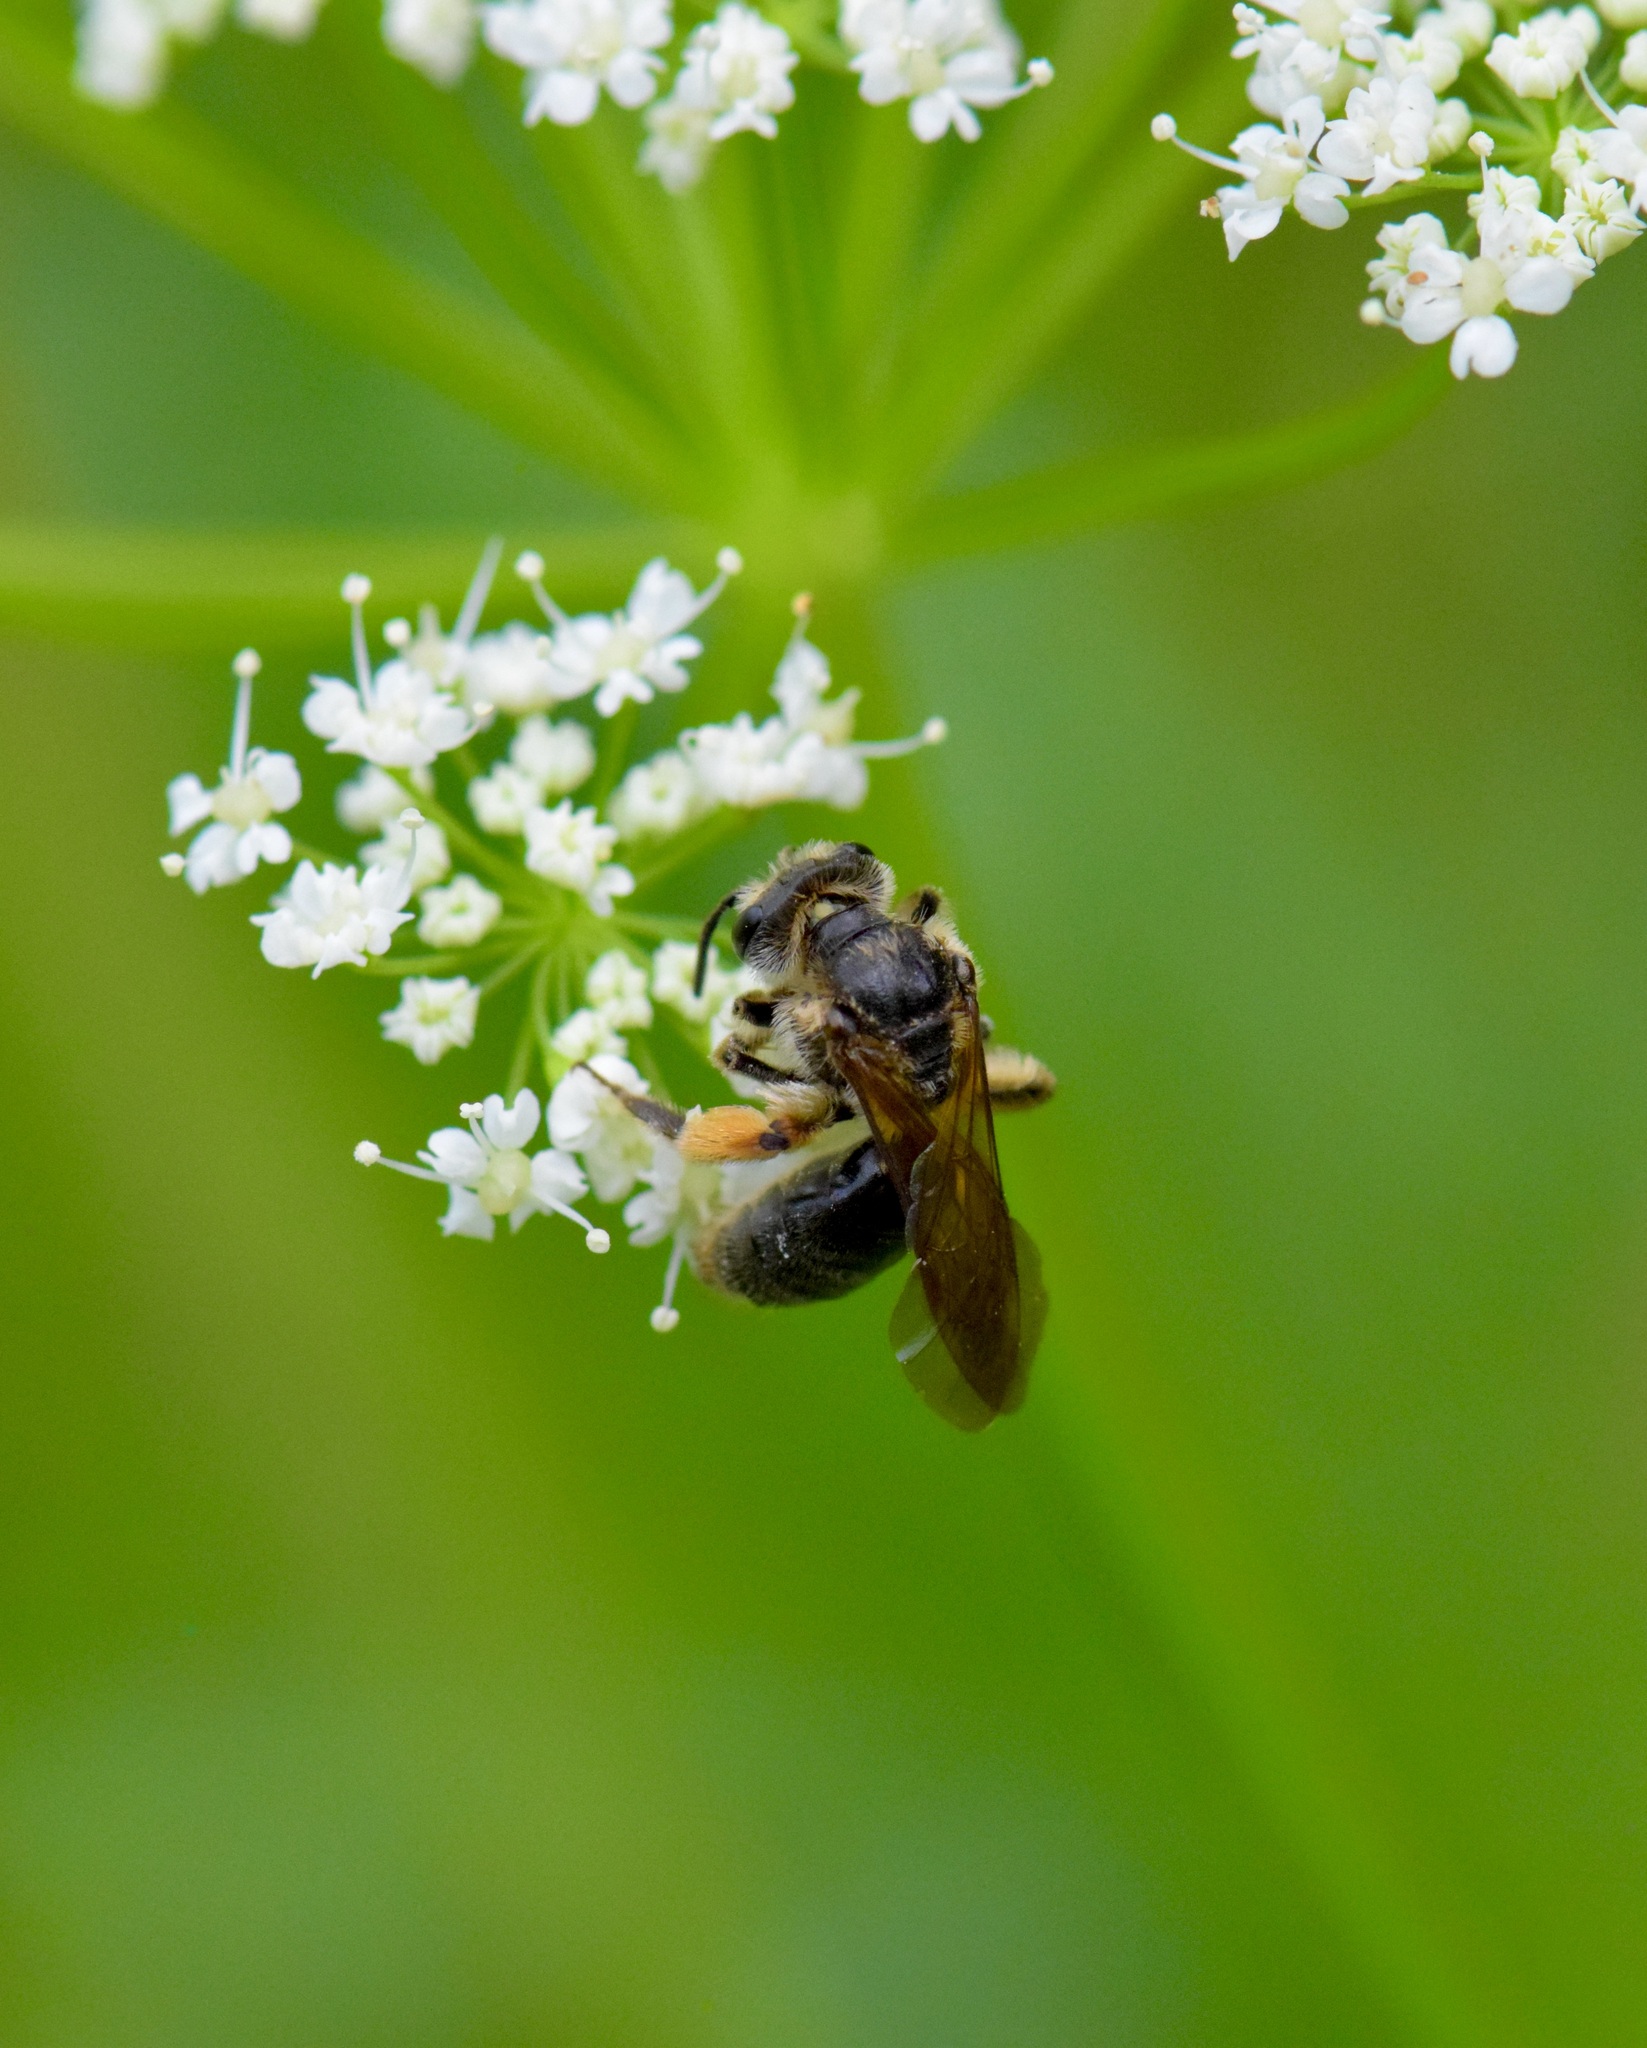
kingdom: Animalia
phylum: Arthropoda
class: Insecta
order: Hymenoptera
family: Andrenidae
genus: Andrena
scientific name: Andrena crataegi
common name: Hawthorn mining bee
